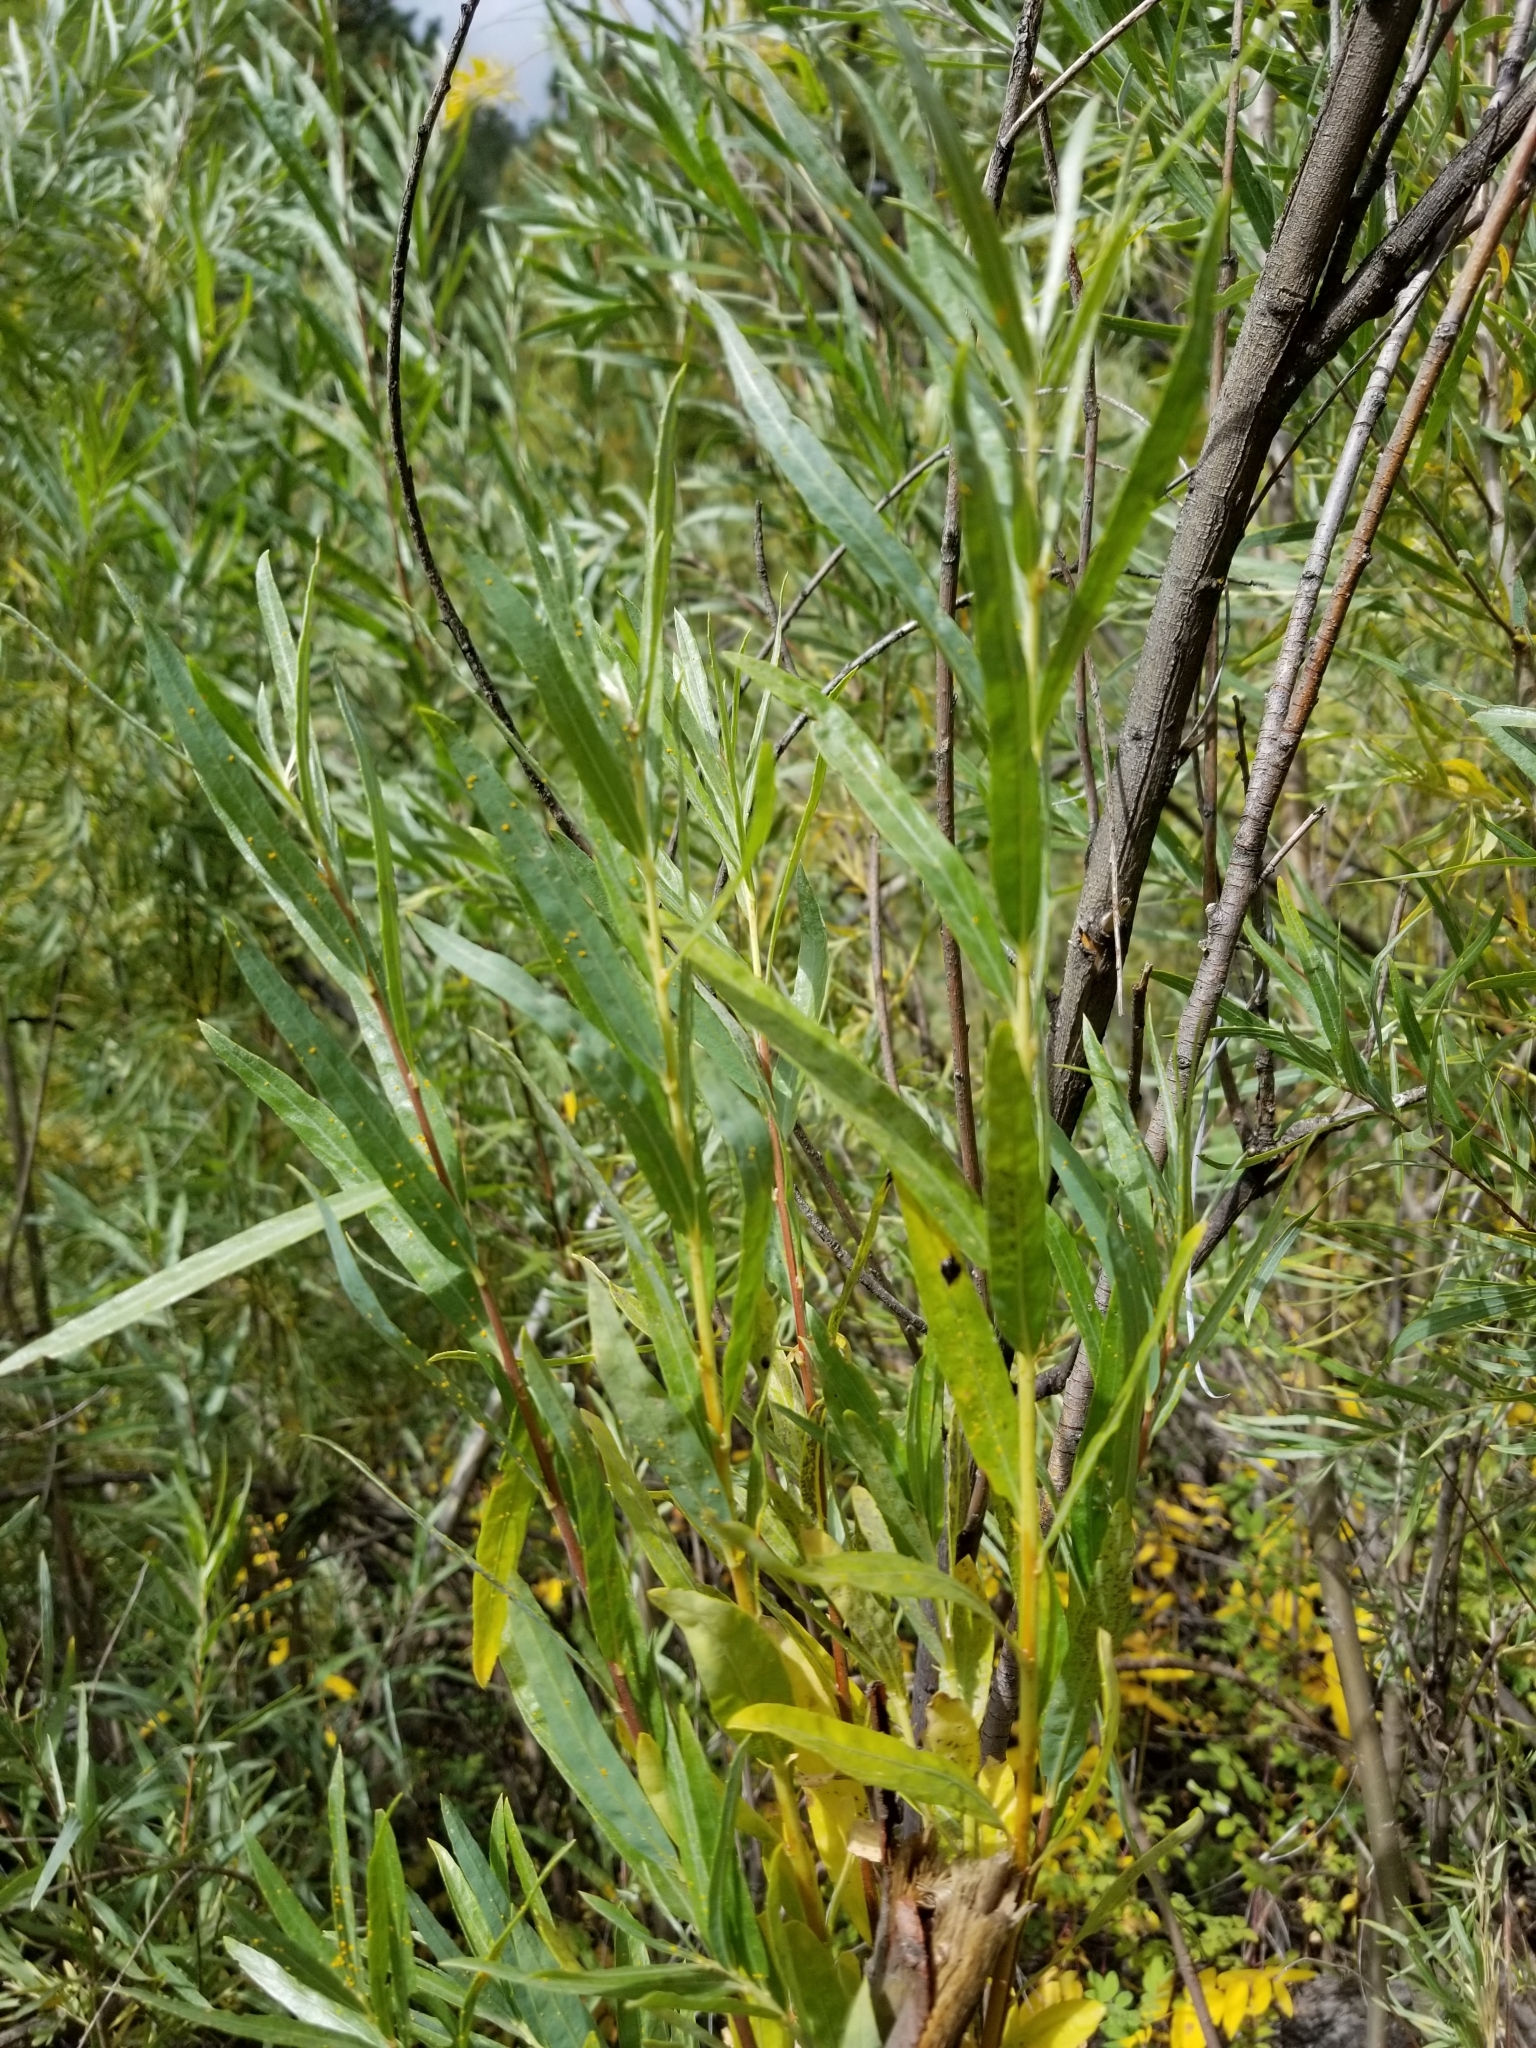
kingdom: Plantae
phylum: Tracheophyta
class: Magnoliopsida
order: Malpighiales
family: Salicaceae
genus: Salix
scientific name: Salix exigua
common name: Coyote willow
